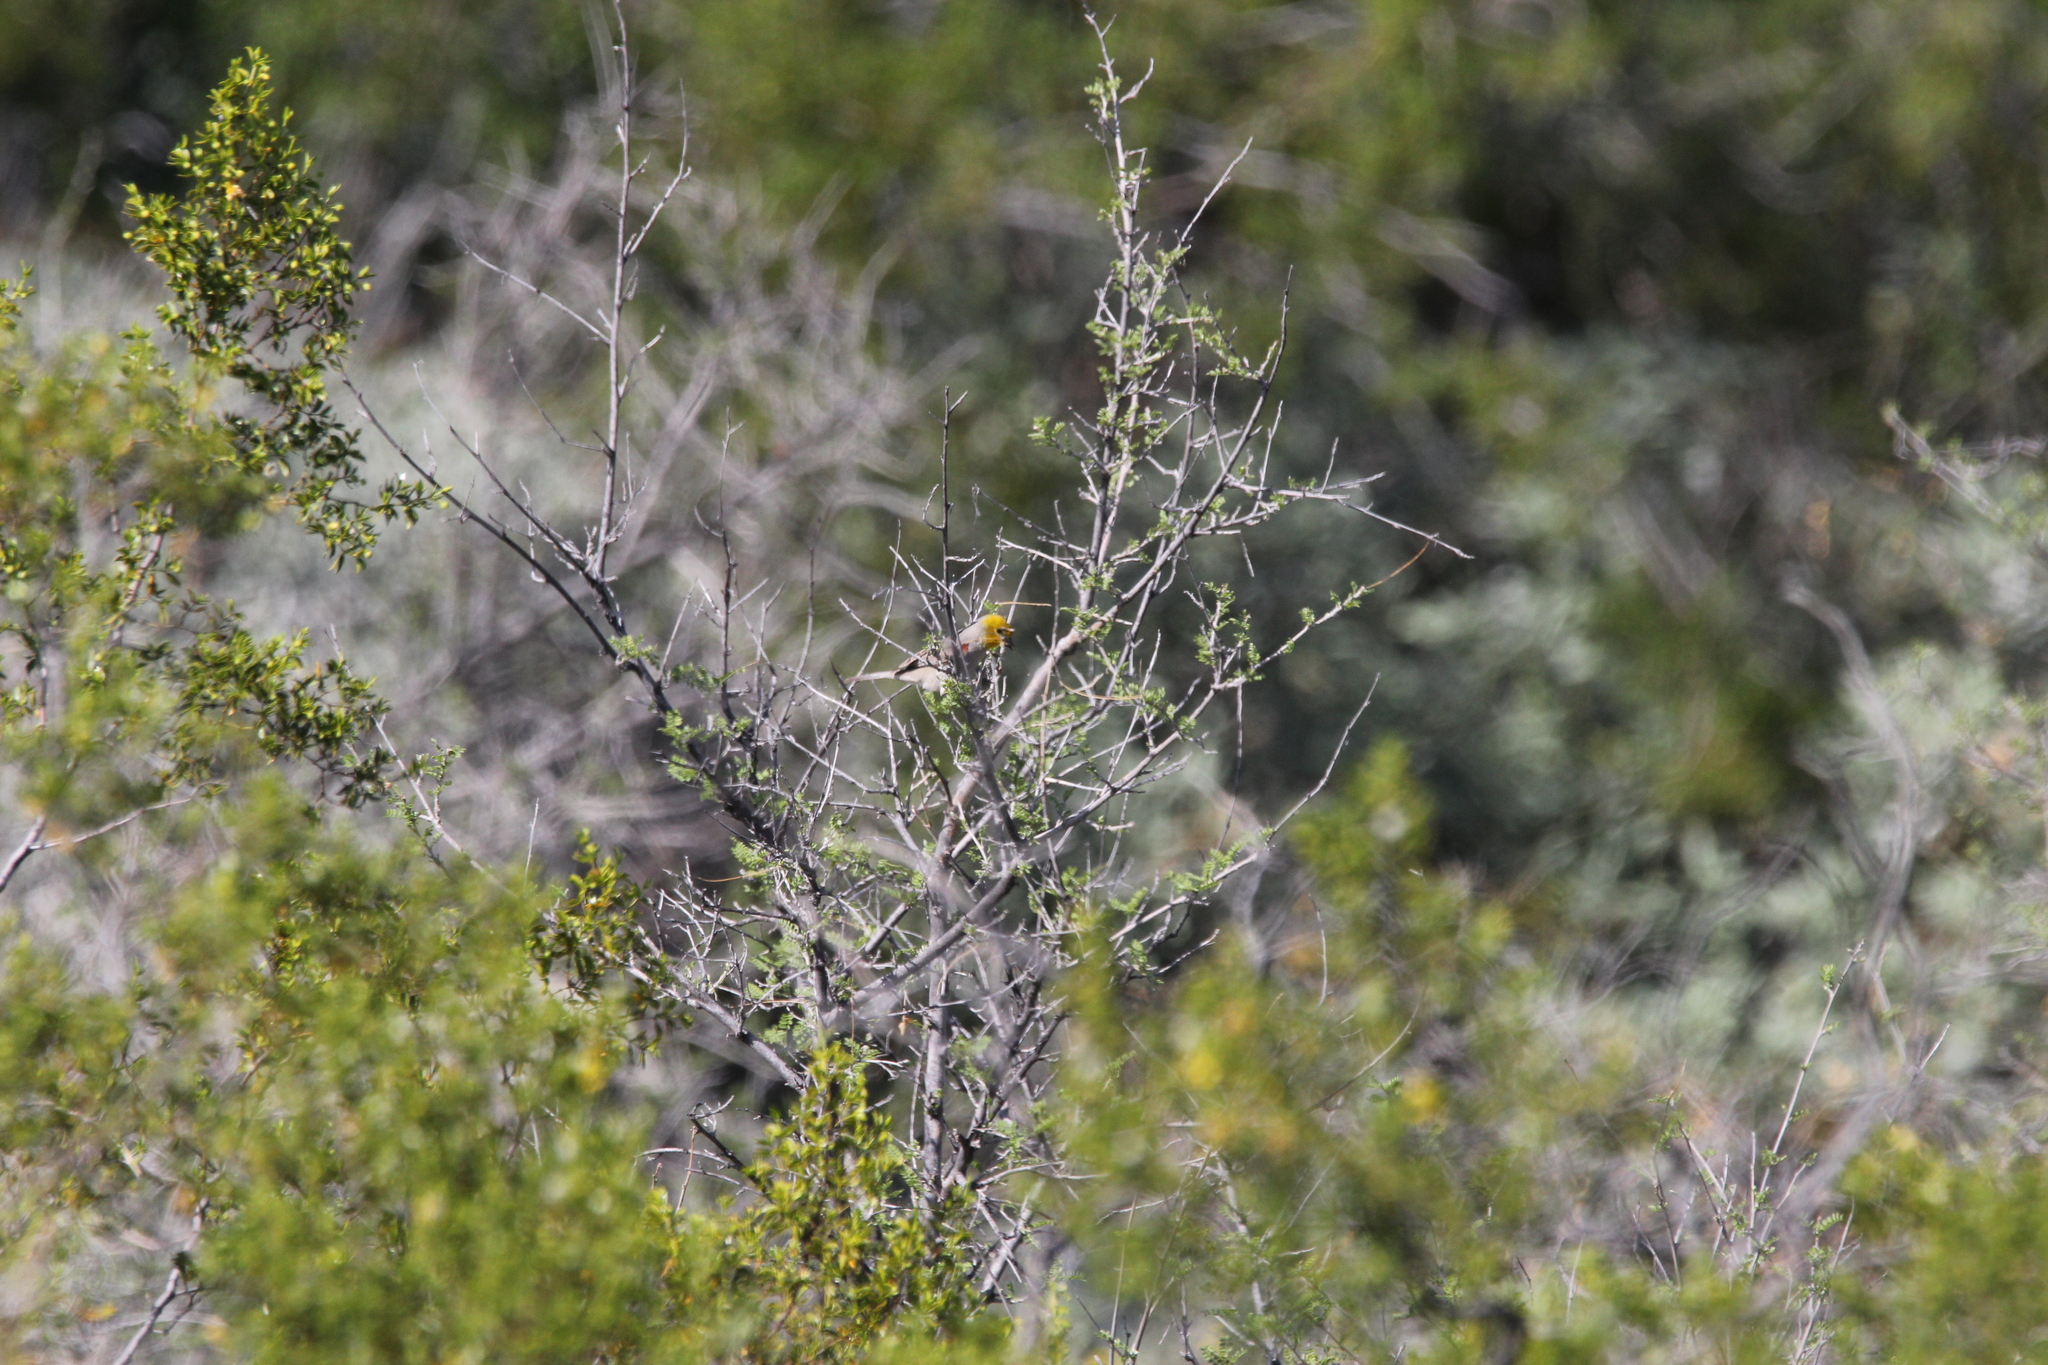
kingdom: Animalia
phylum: Chordata
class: Aves
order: Passeriformes
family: Remizidae
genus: Auriparus
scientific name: Auriparus flaviceps
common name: Verdin
